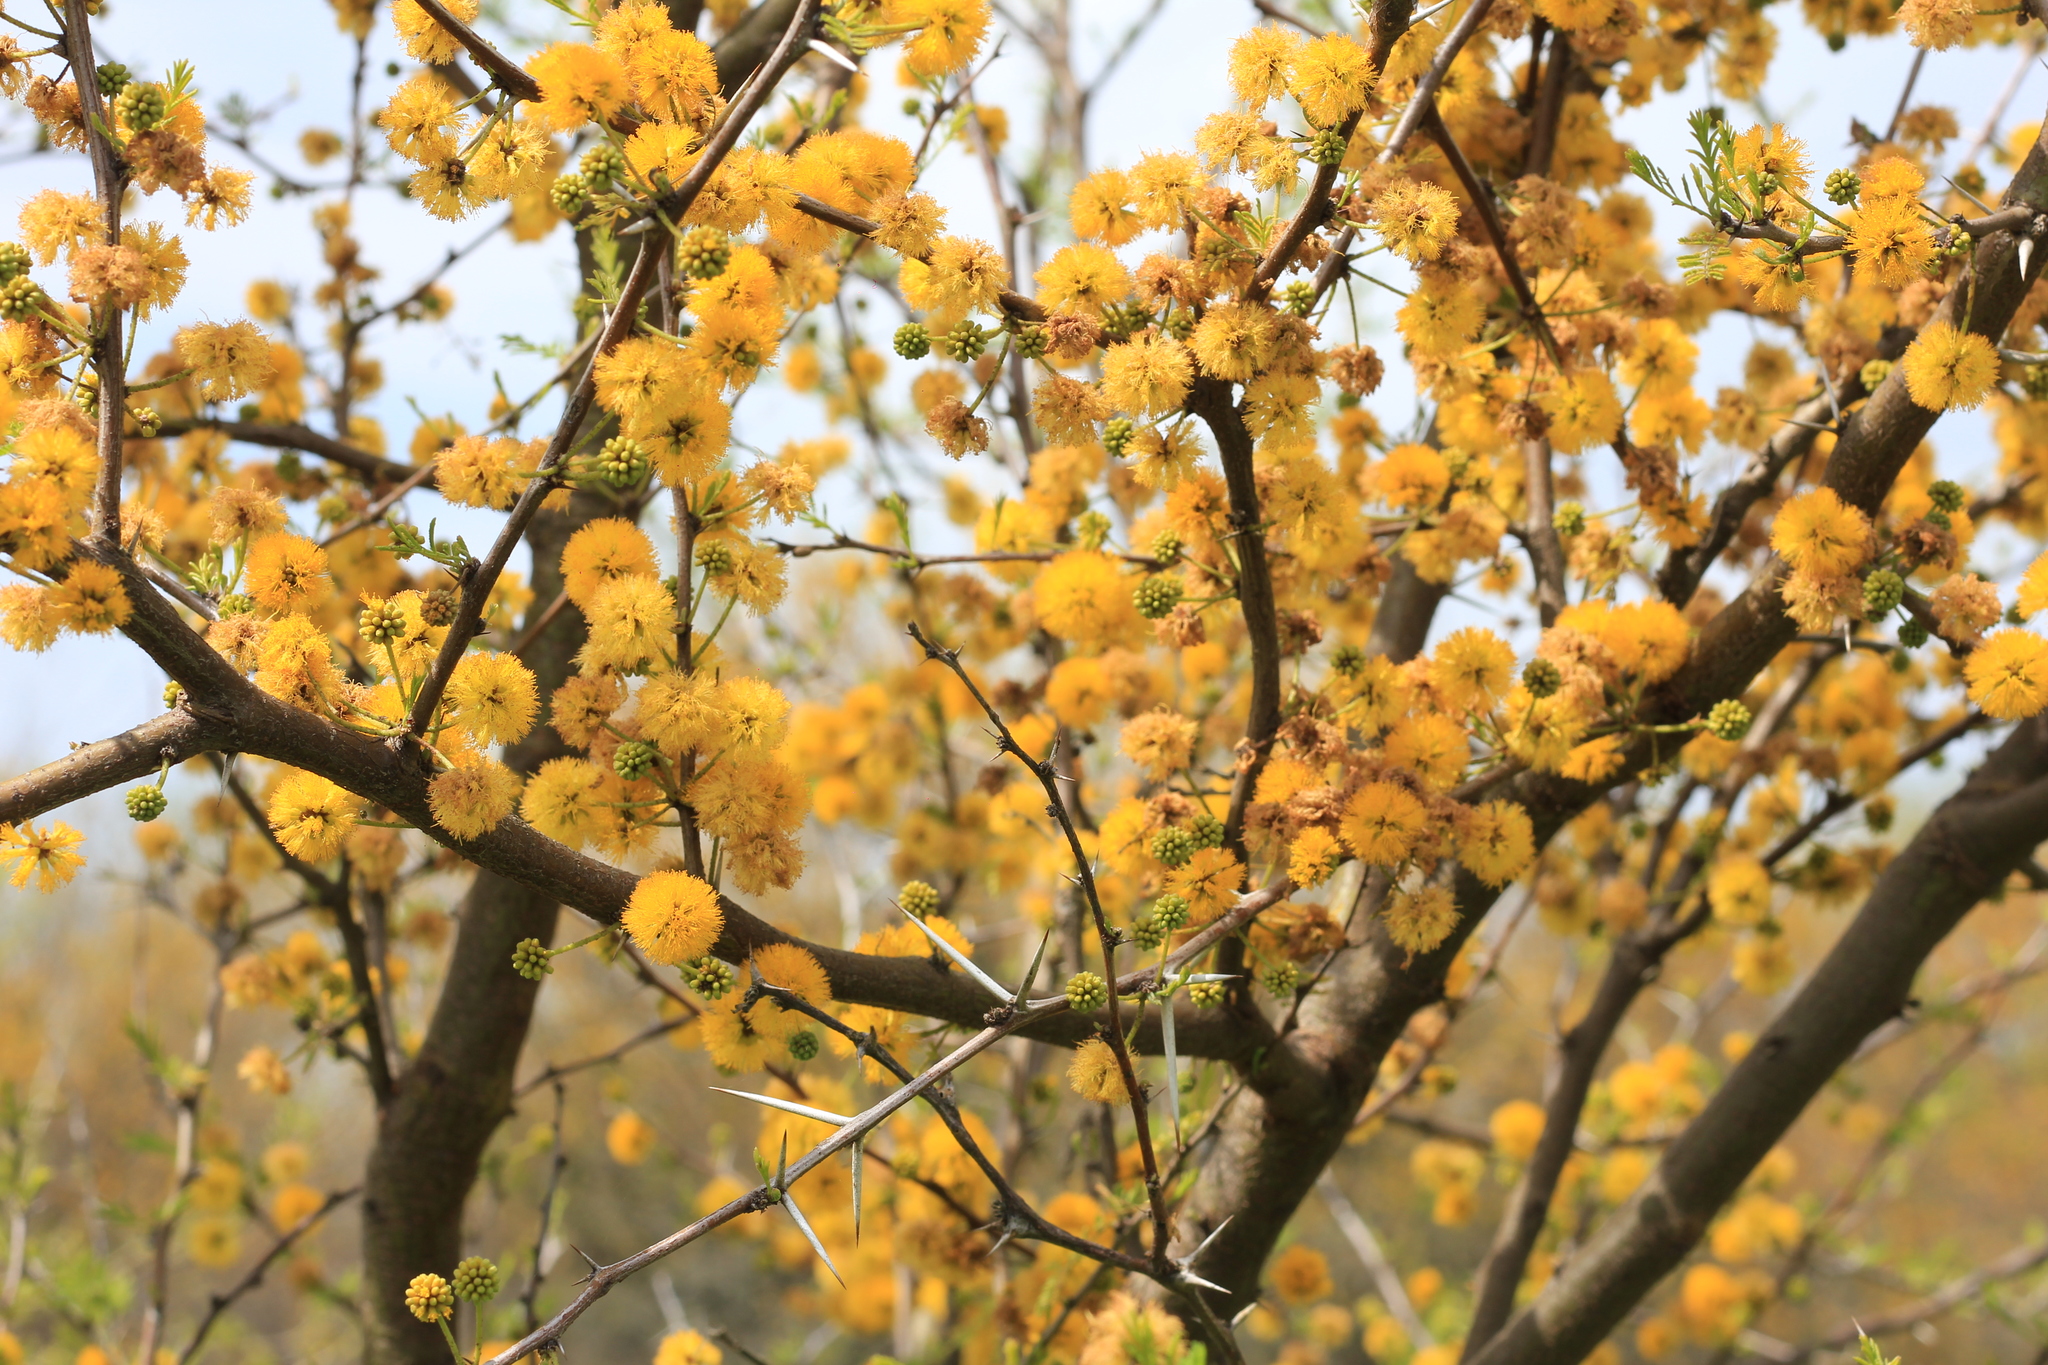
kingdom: Plantae
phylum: Tracheophyta
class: Magnoliopsida
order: Fabales
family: Fabaceae
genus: Vachellia
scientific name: Vachellia caven
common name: Roman cassie
